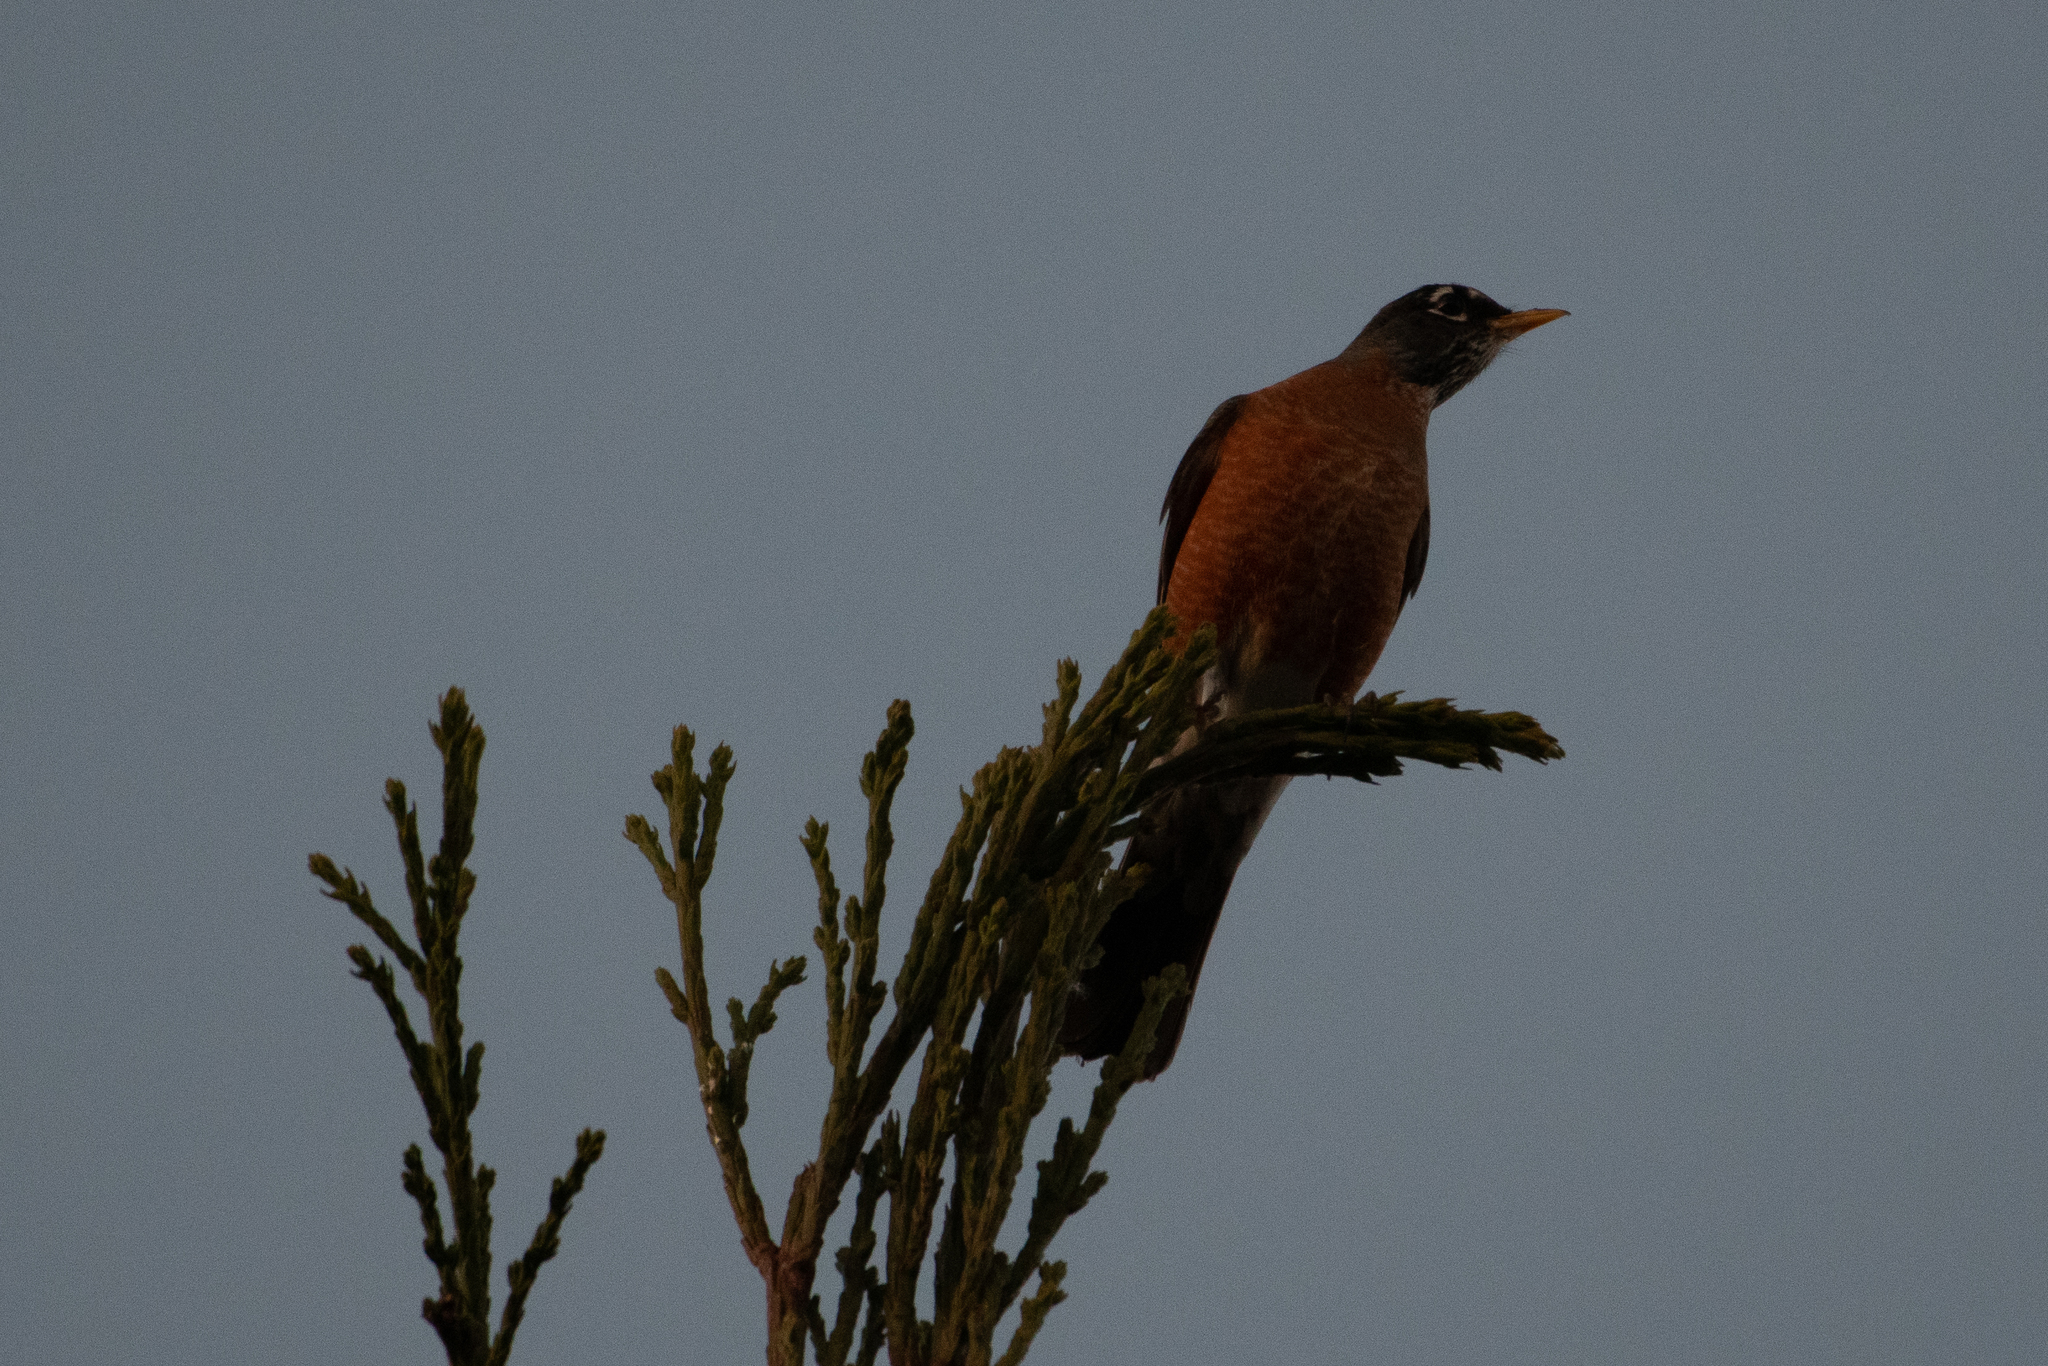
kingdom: Animalia
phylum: Chordata
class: Aves
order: Passeriformes
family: Turdidae
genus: Turdus
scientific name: Turdus migratorius
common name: American robin
